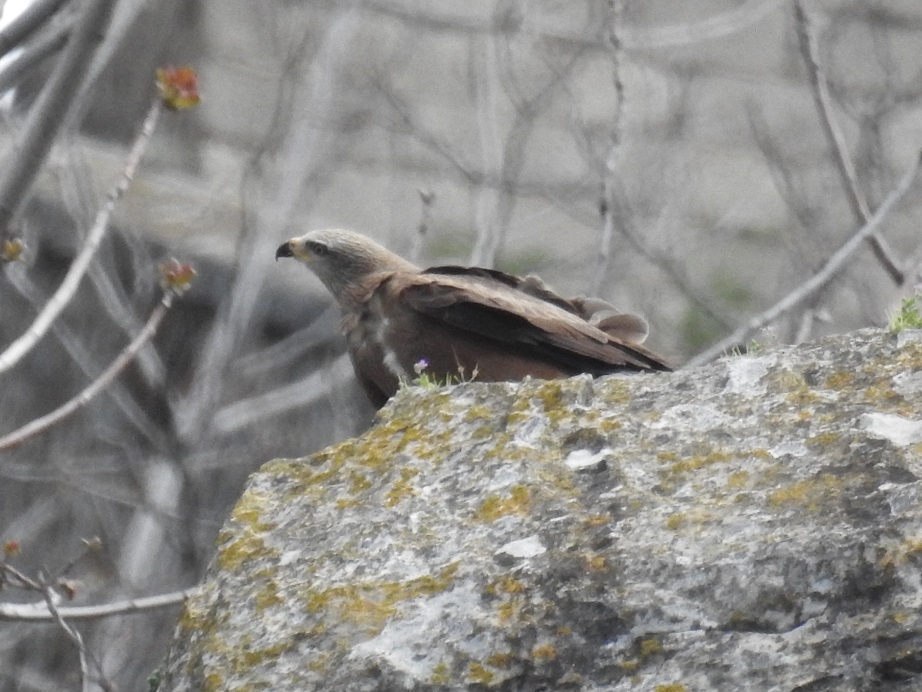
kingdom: Animalia
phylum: Chordata
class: Aves
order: Accipitriformes
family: Accipitridae
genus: Milvus
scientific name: Milvus migrans
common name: Black kite
